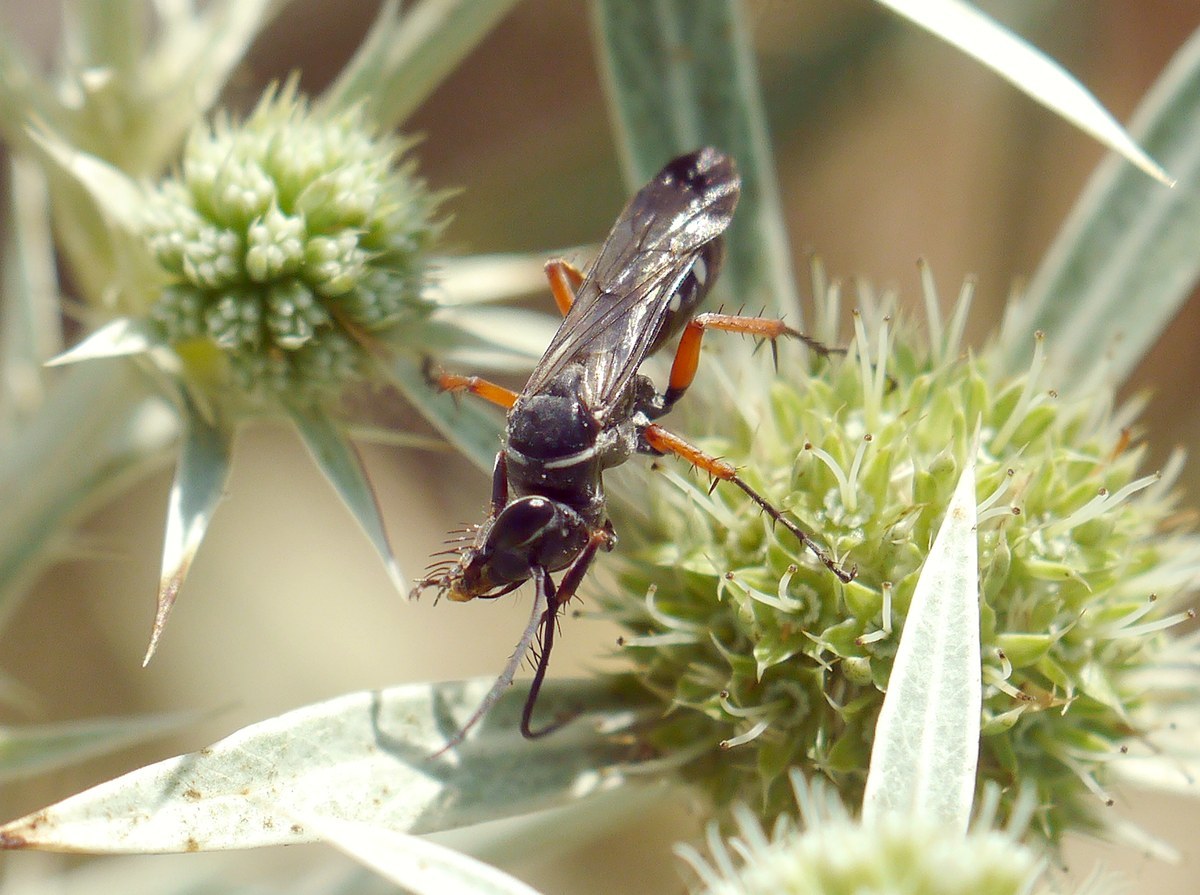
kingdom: Animalia
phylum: Arthropoda
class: Insecta
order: Hymenoptera
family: Pompilidae
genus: Episyron
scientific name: Episyron rufipes
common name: Red legged spider wasp
